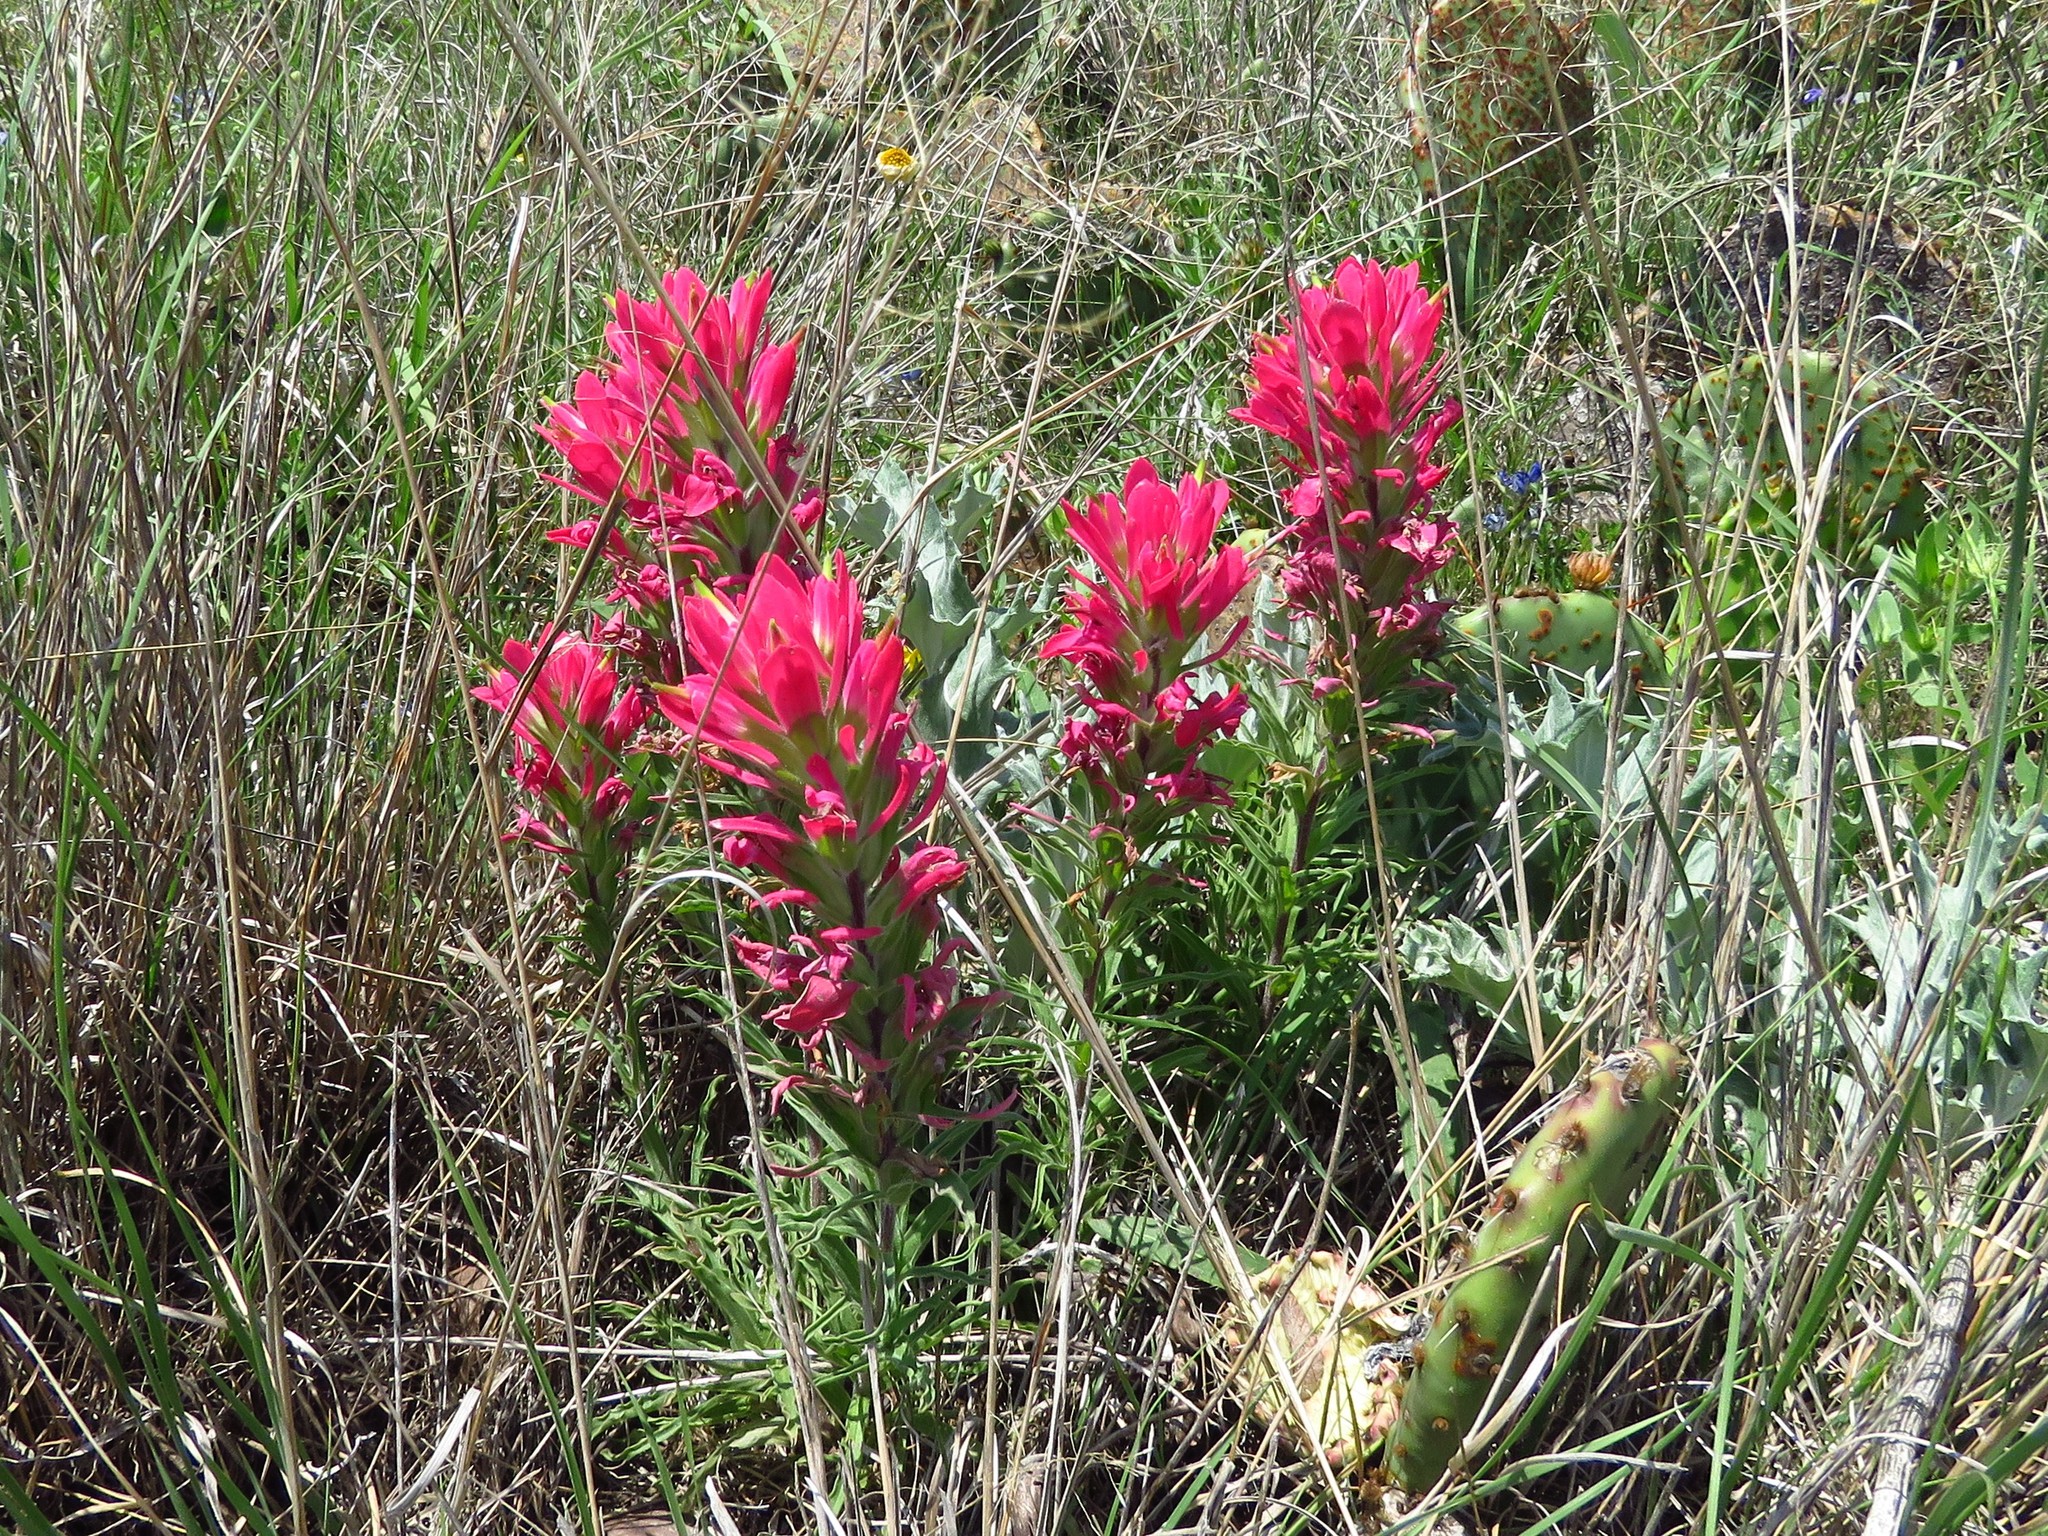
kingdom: Plantae
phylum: Tracheophyta
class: Magnoliopsida
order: Lamiales
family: Orobanchaceae
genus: Castilleja
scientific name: Castilleja
